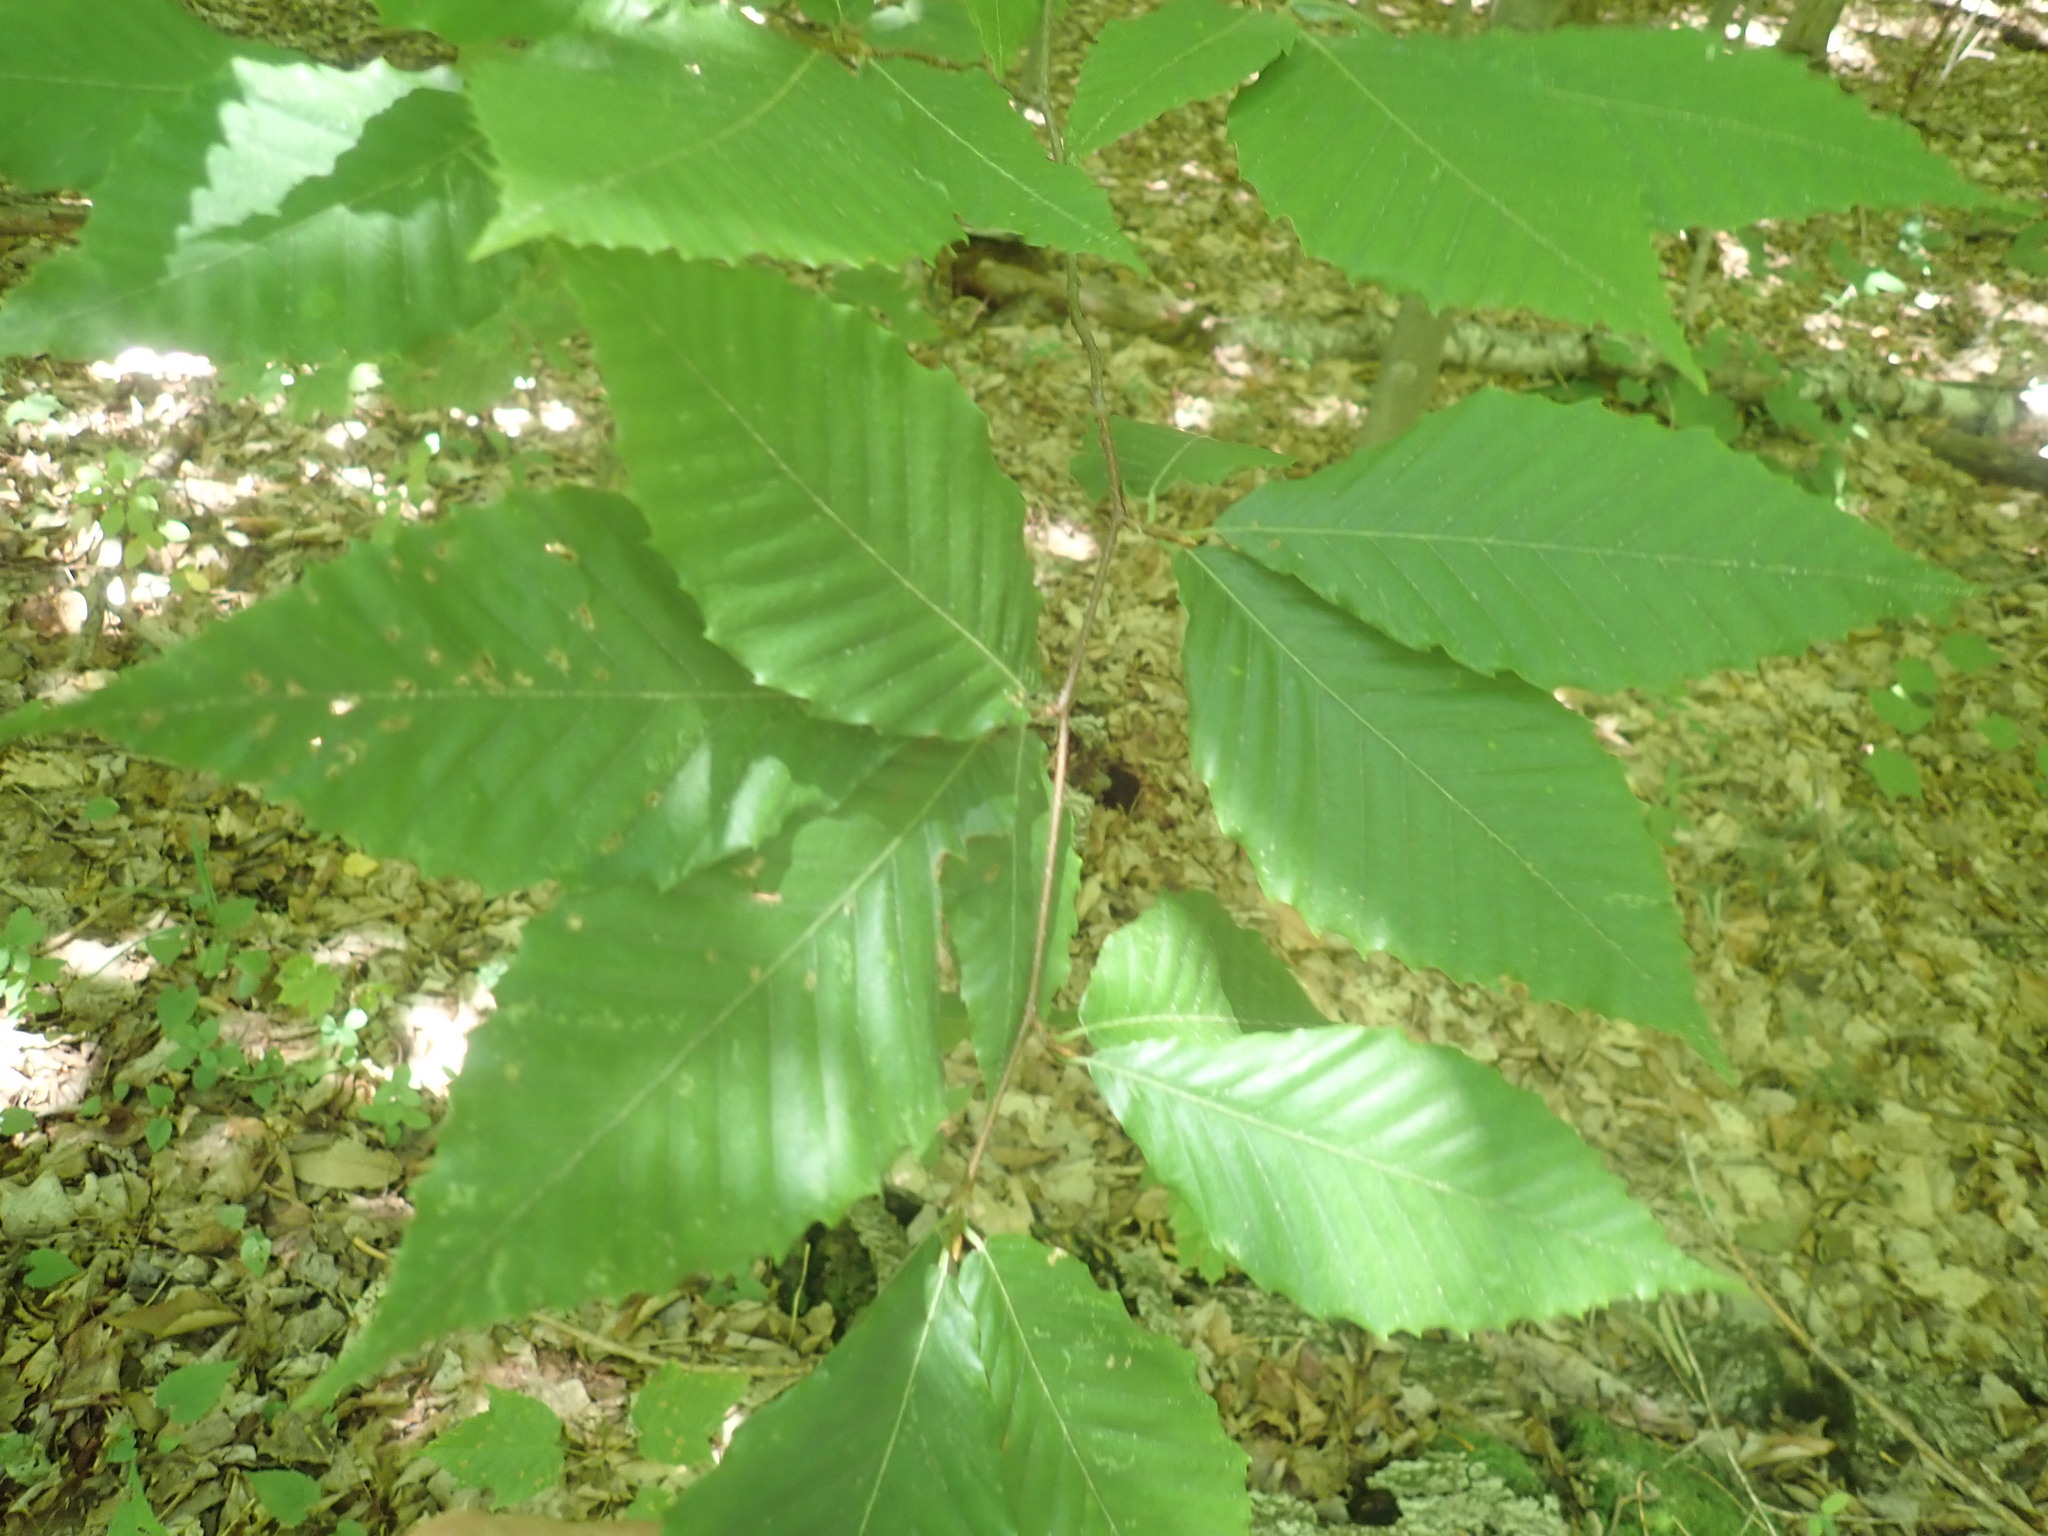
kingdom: Plantae
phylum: Tracheophyta
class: Magnoliopsida
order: Fagales
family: Fagaceae
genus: Fagus
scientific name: Fagus grandifolia
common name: American beech
